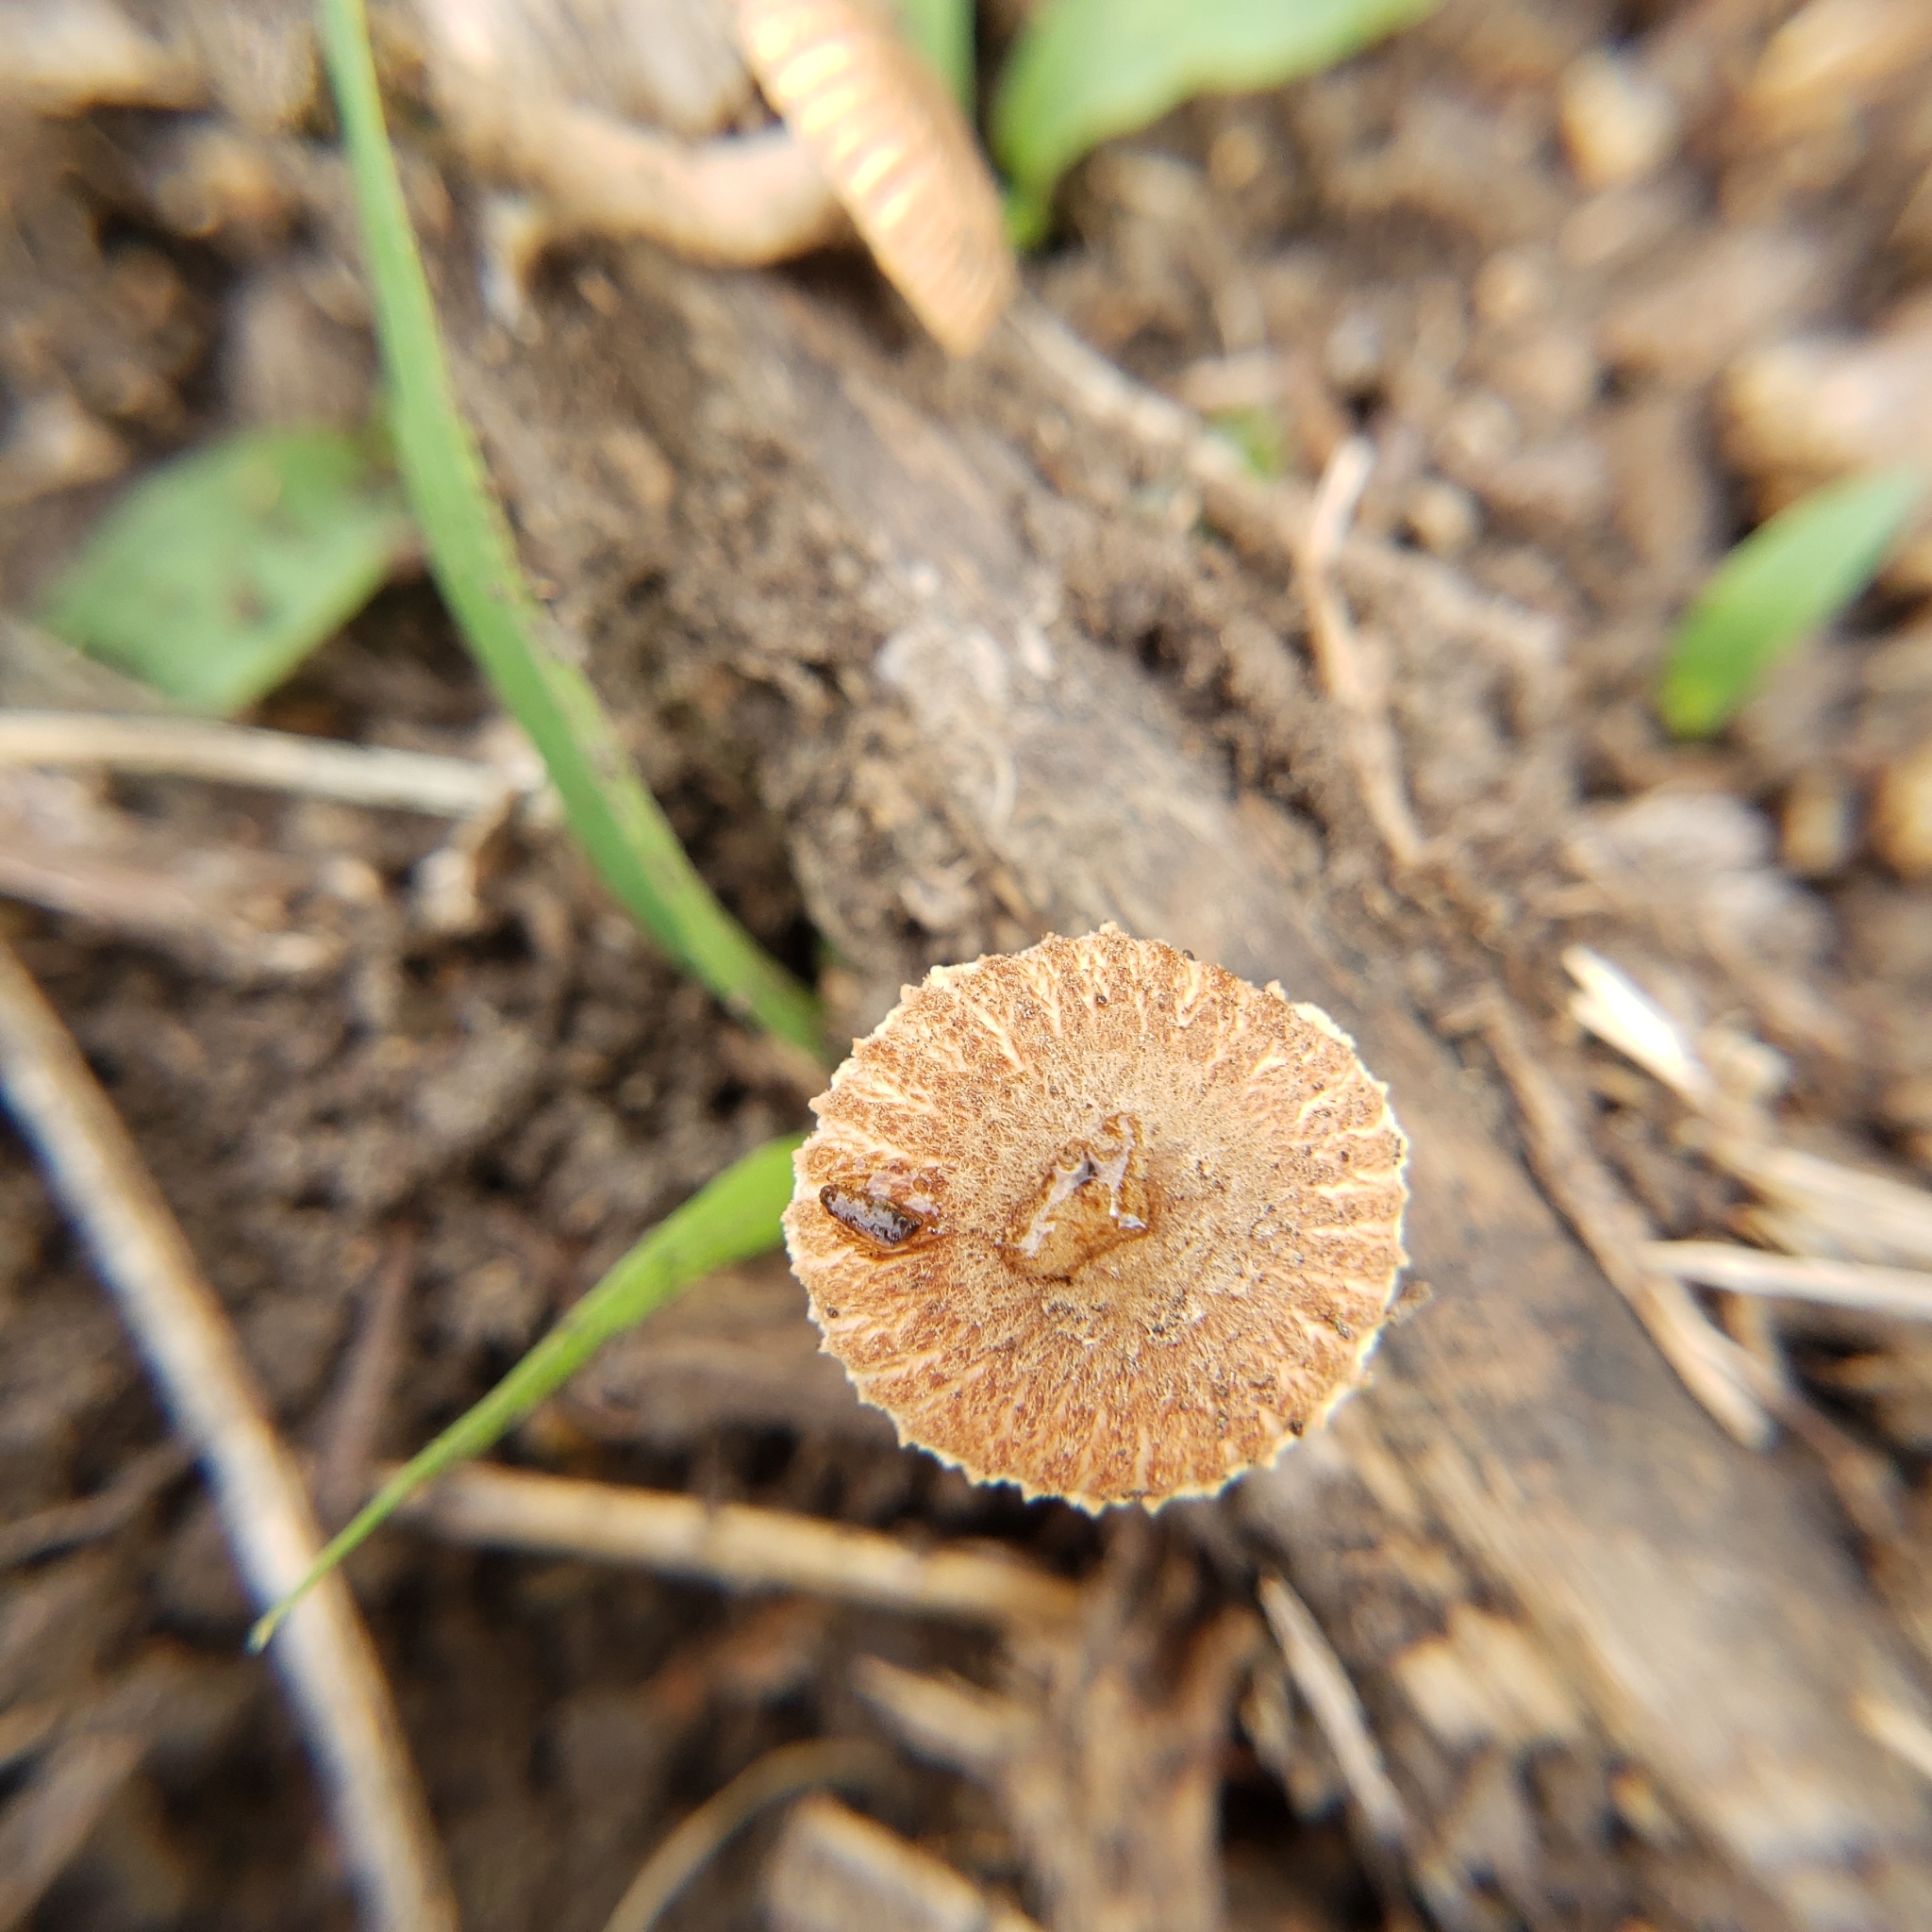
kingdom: Fungi
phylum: Basidiomycota
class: Agaricomycetes
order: Gloeophyllales
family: Gloeophyllaceae
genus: Heliocybe
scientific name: Heliocybe sulcata
